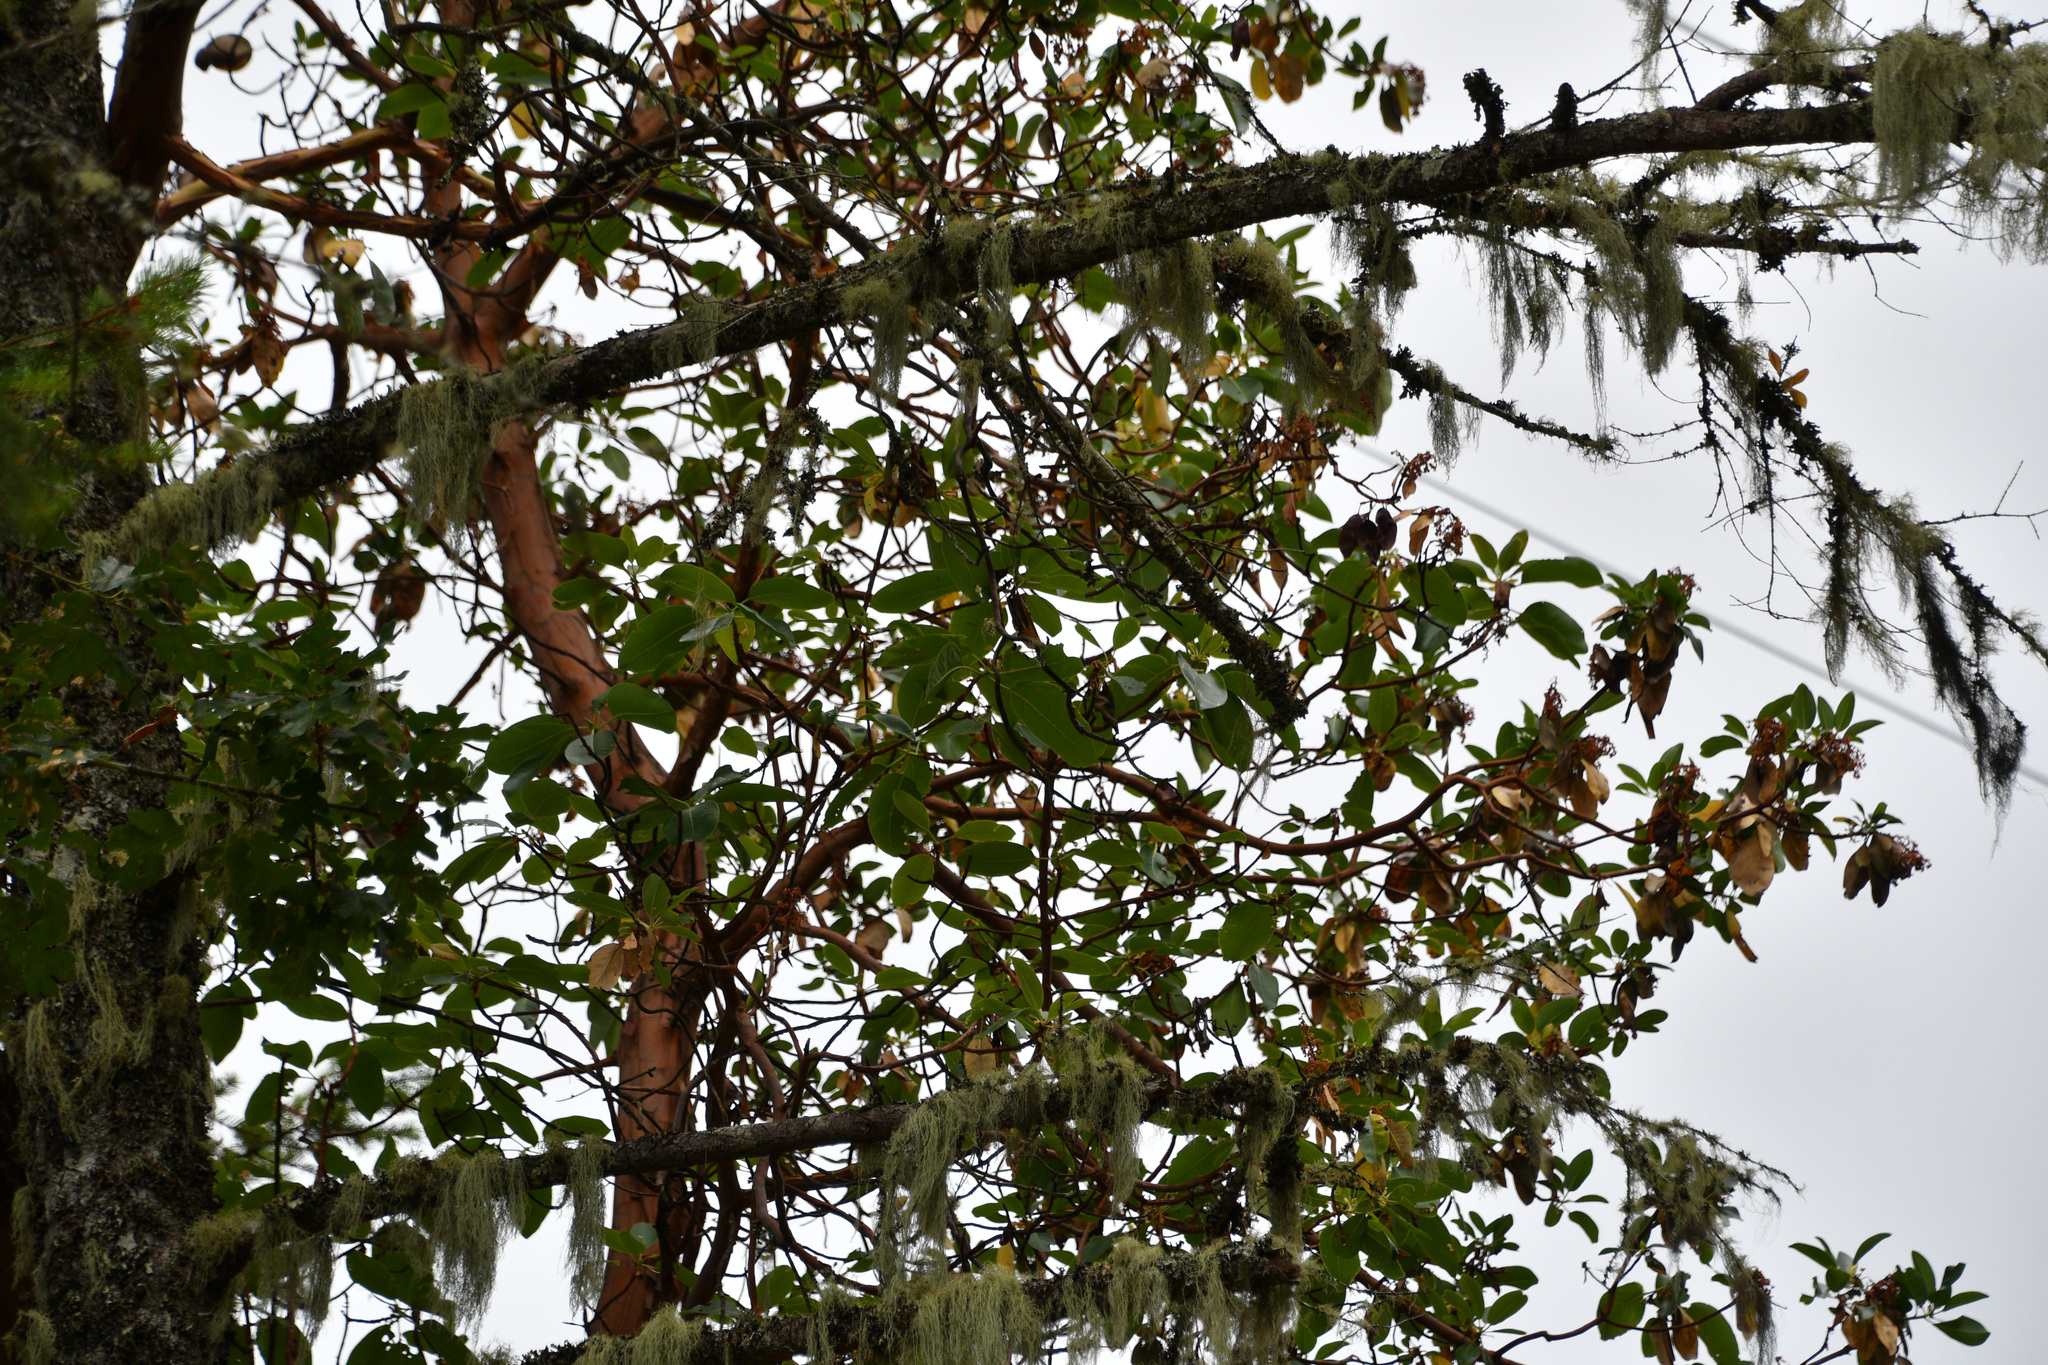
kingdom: Plantae
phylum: Tracheophyta
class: Magnoliopsida
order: Ericales
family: Ericaceae
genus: Arbutus
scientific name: Arbutus menziesii
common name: Pacific madrone
